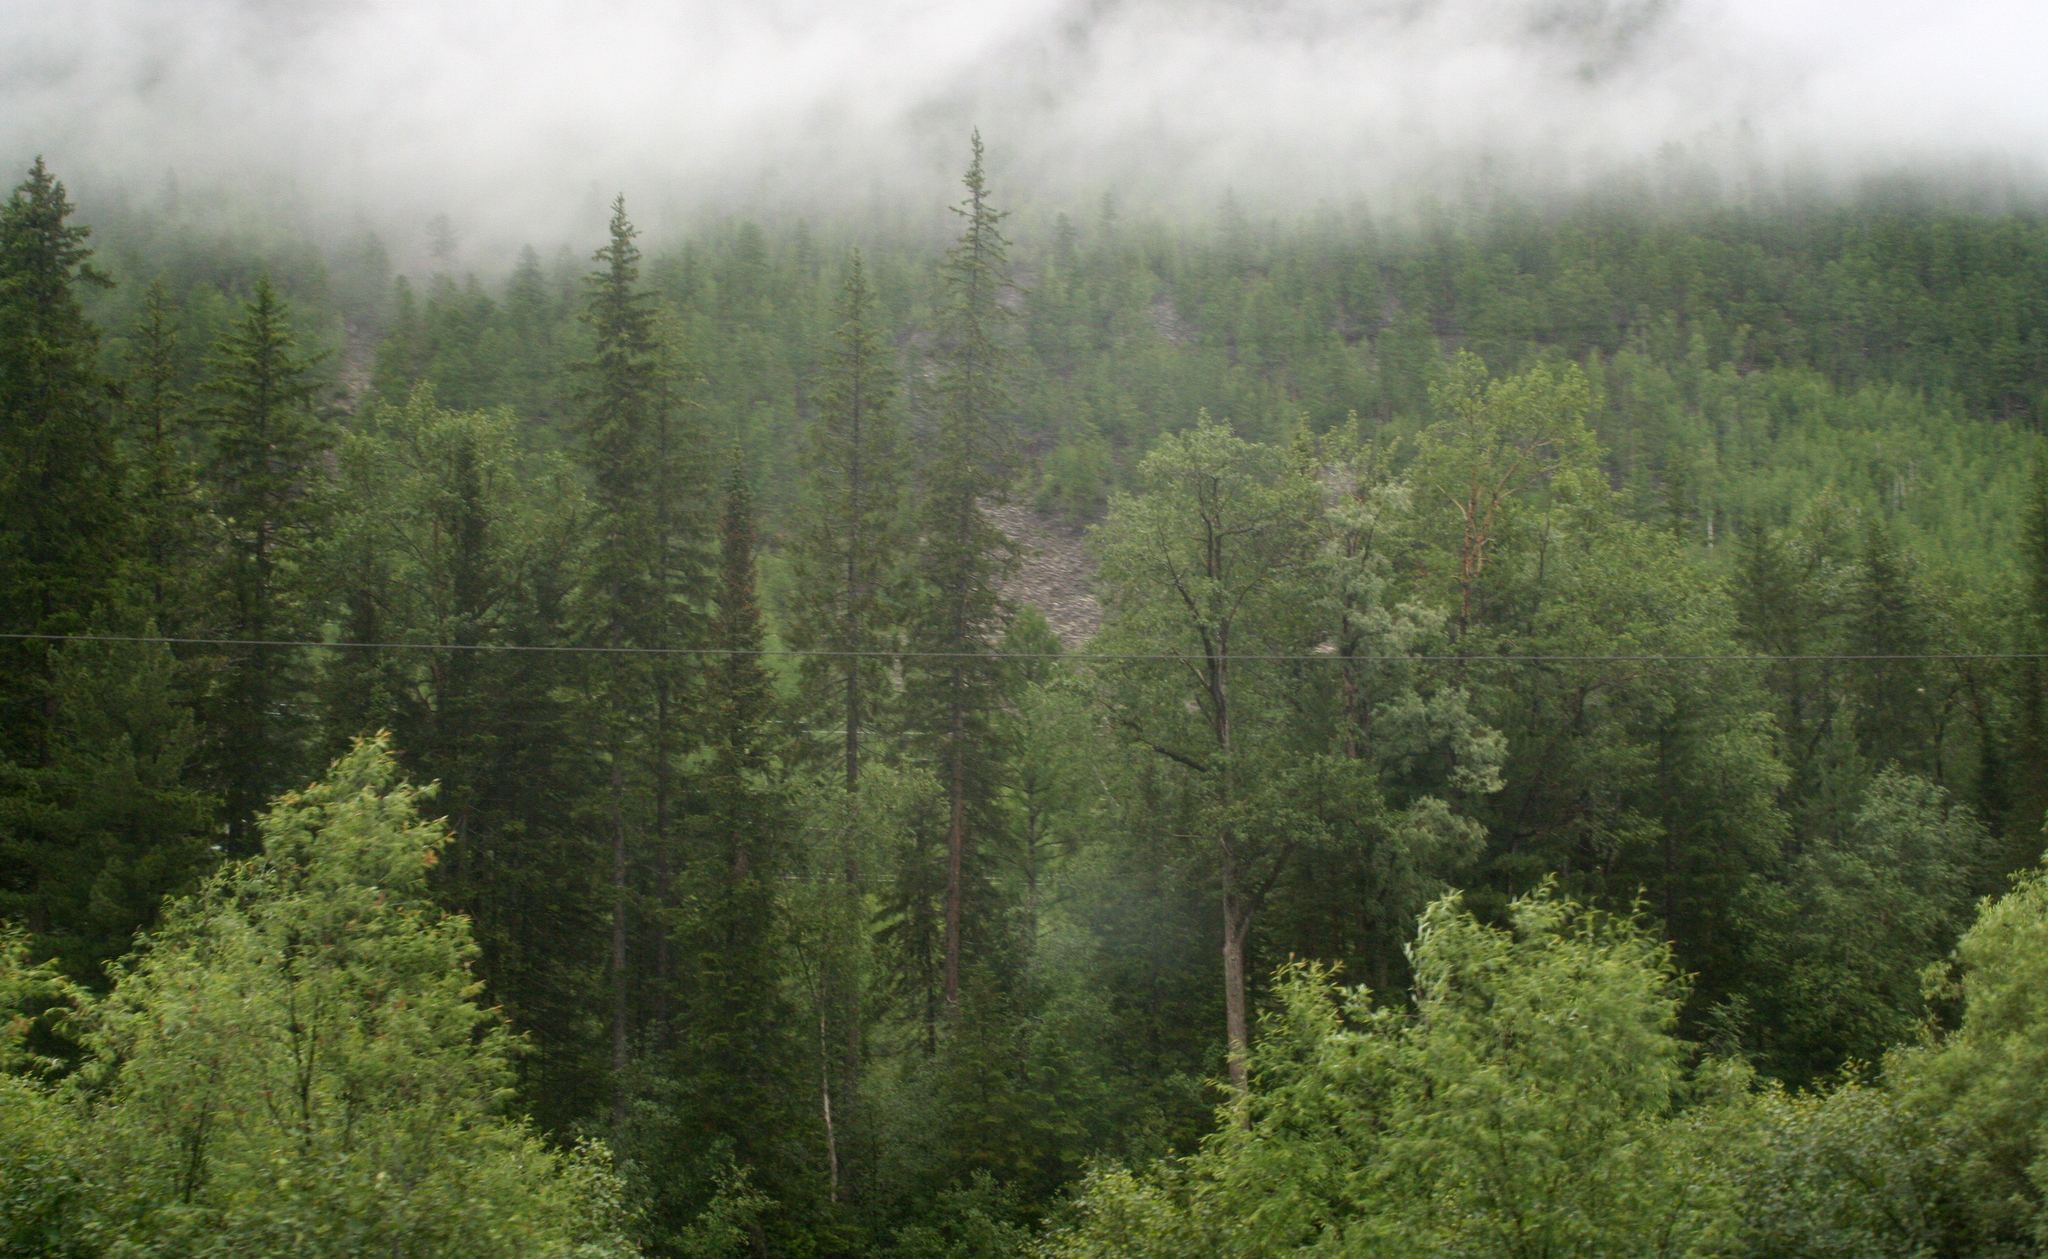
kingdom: Plantae
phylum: Tracheophyta
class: Pinopsida
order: Pinales
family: Pinaceae
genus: Picea
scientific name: Picea obovata
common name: Siberian spruce
